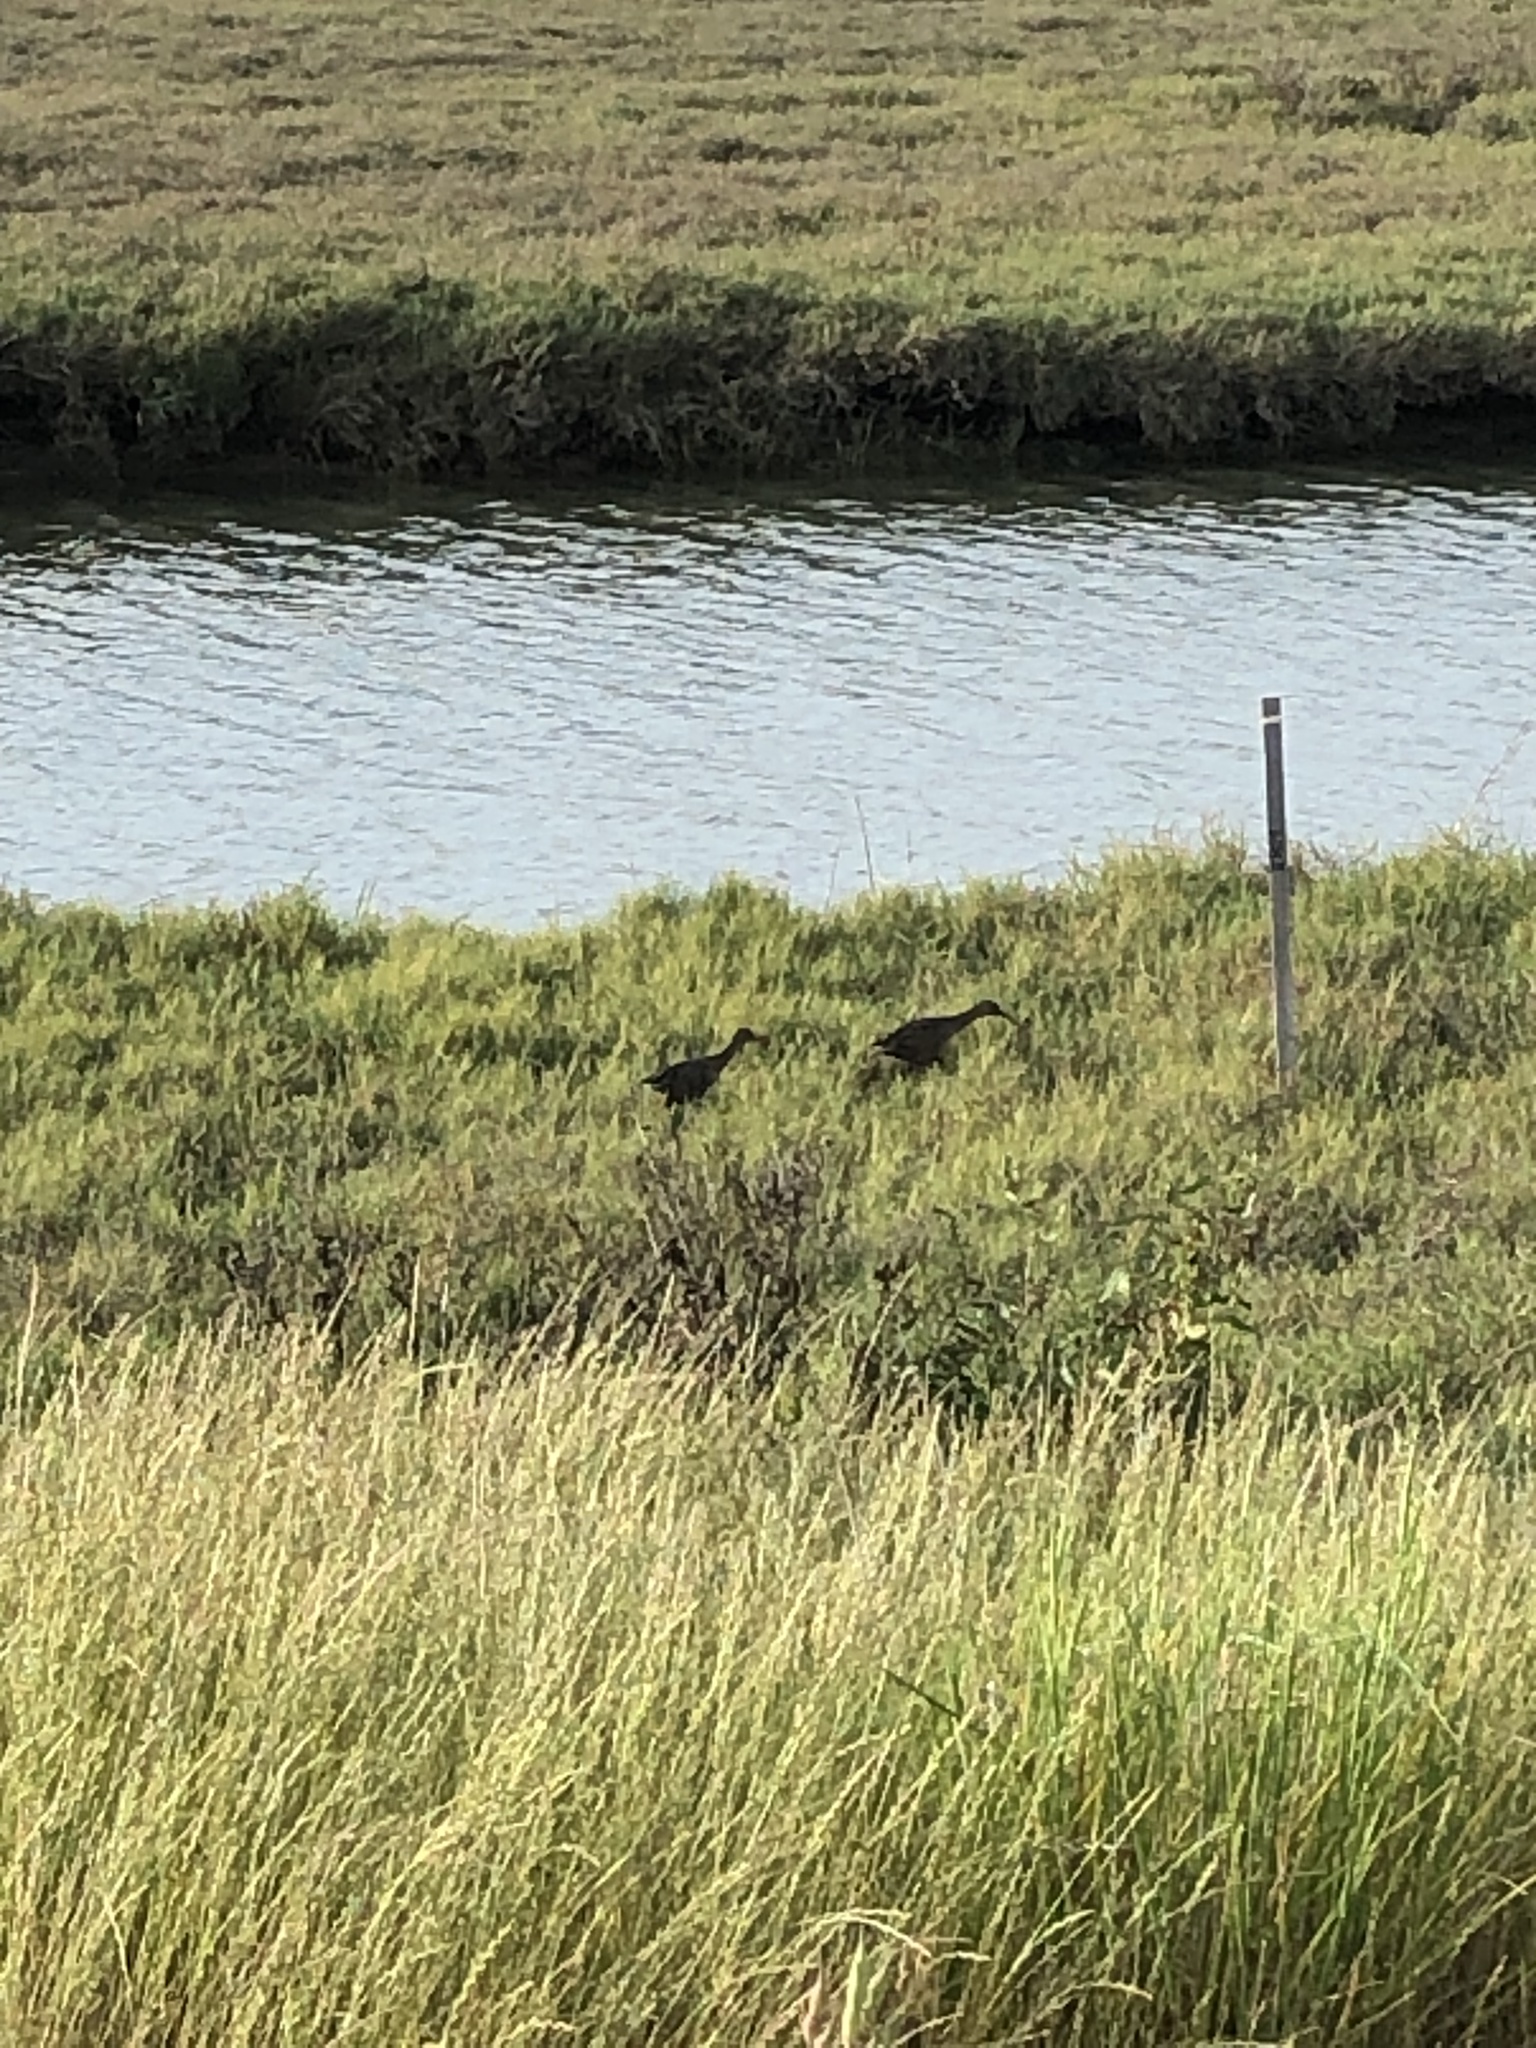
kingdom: Animalia
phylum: Chordata
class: Aves
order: Gruiformes
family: Rallidae
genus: Rallus
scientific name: Rallus obsoletus
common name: Ridgway's rail
